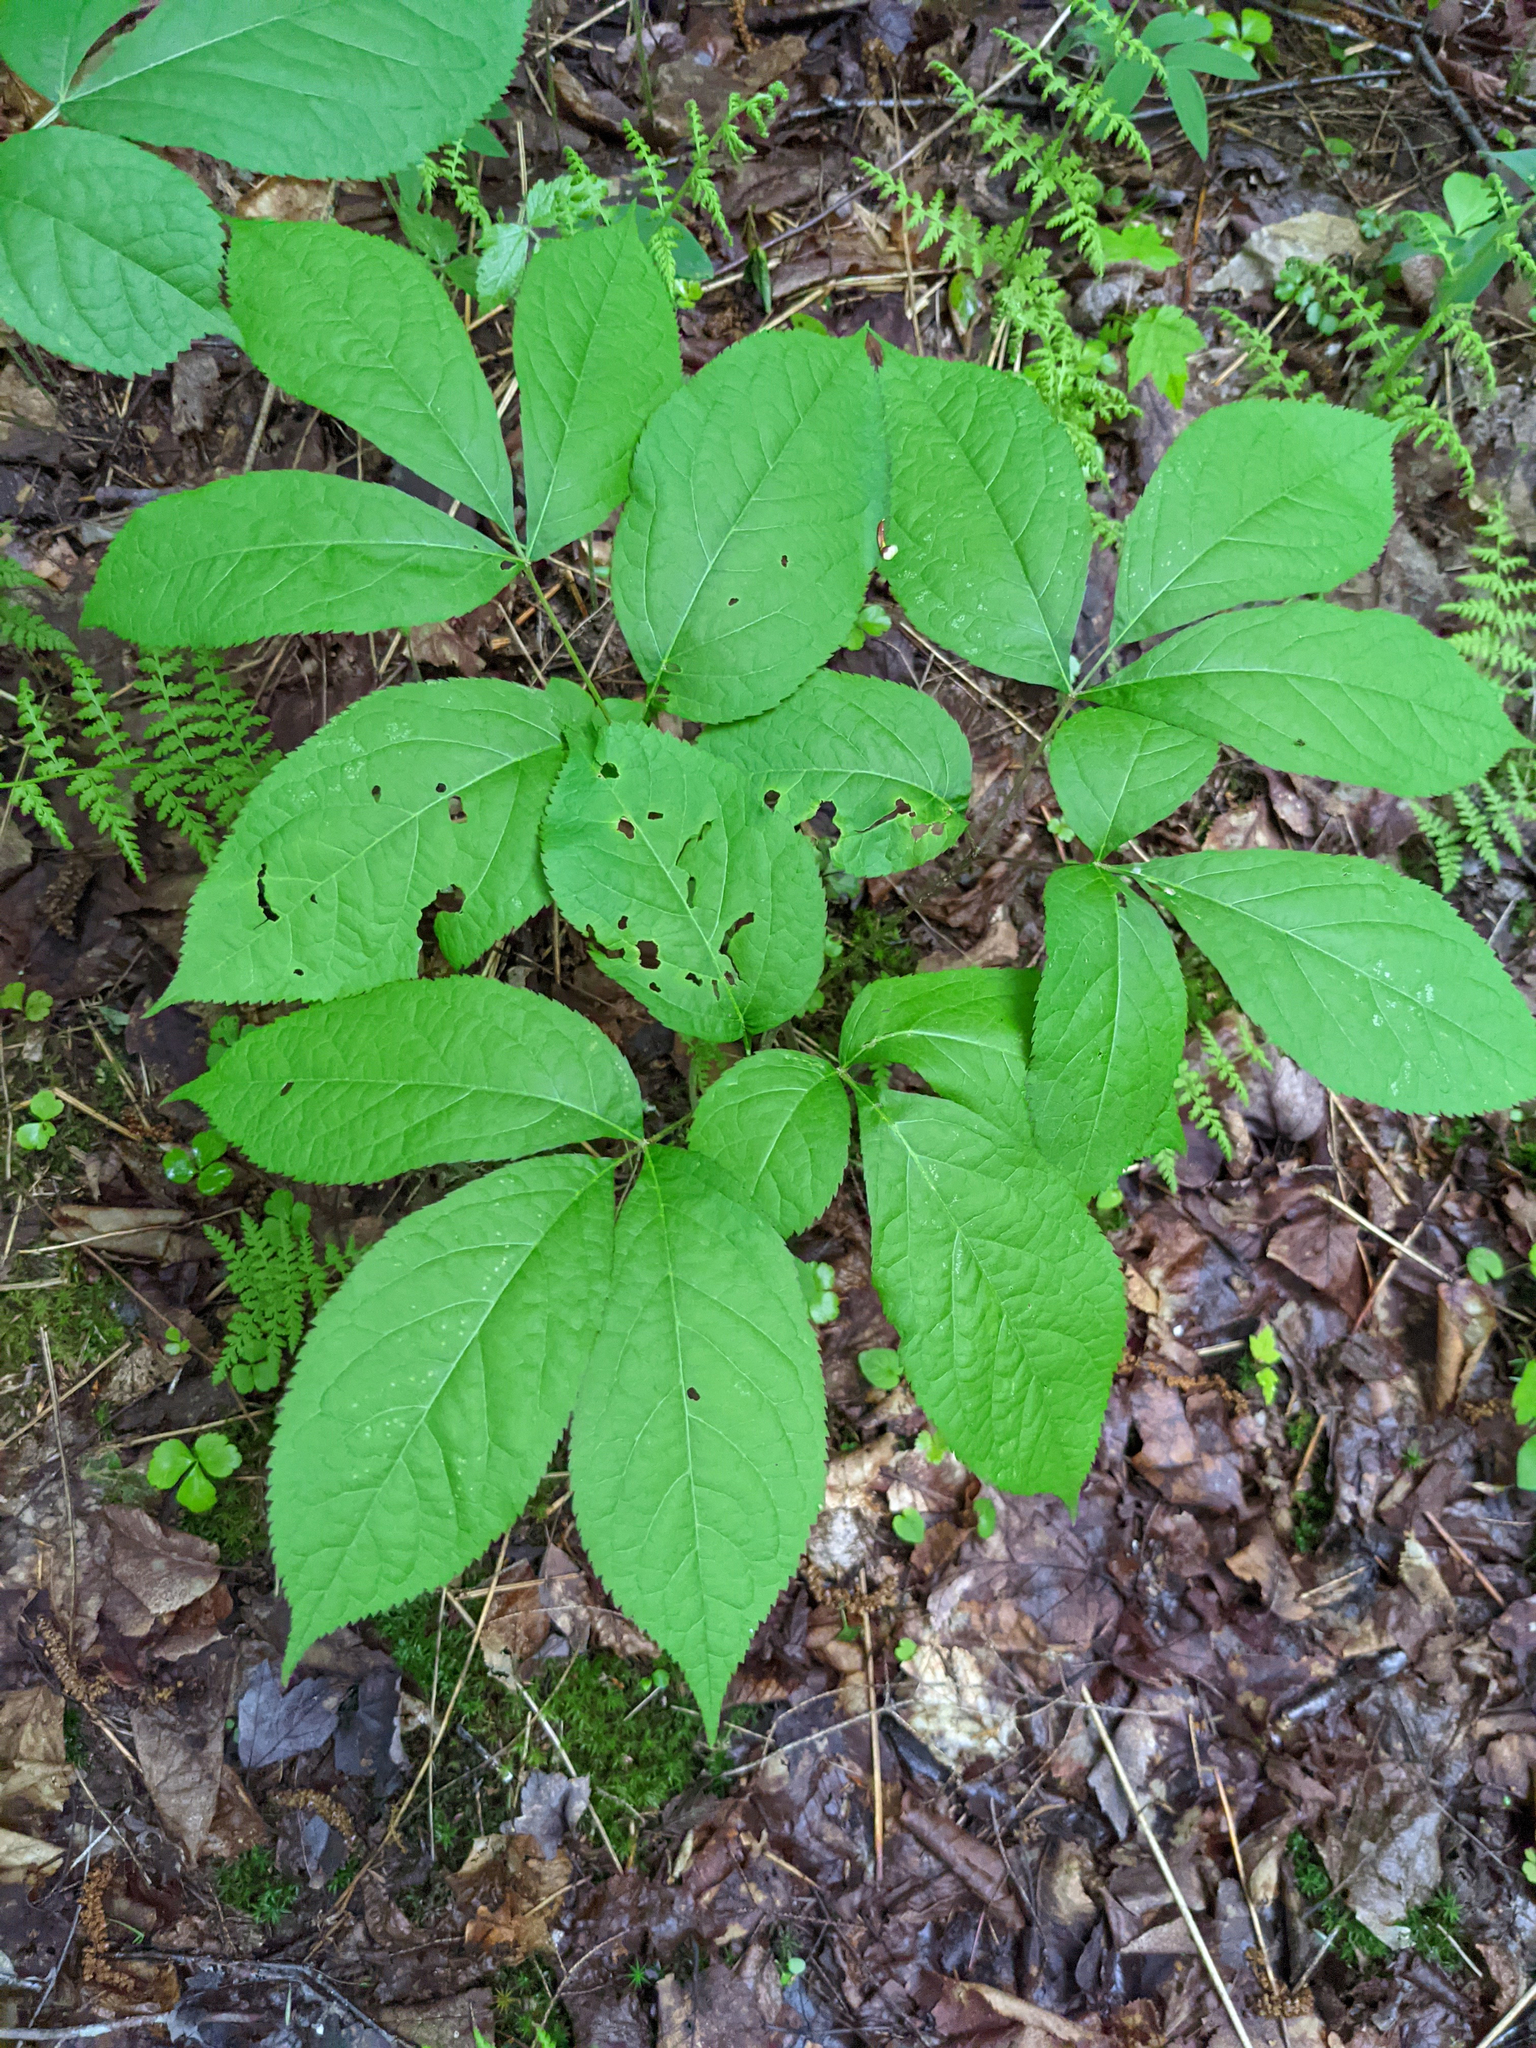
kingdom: Plantae
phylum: Tracheophyta
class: Magnoliopsida
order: Apiales
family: Araliaceae
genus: Aralia
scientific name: Aralia nudicaulis
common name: Wild sarsaparilla
